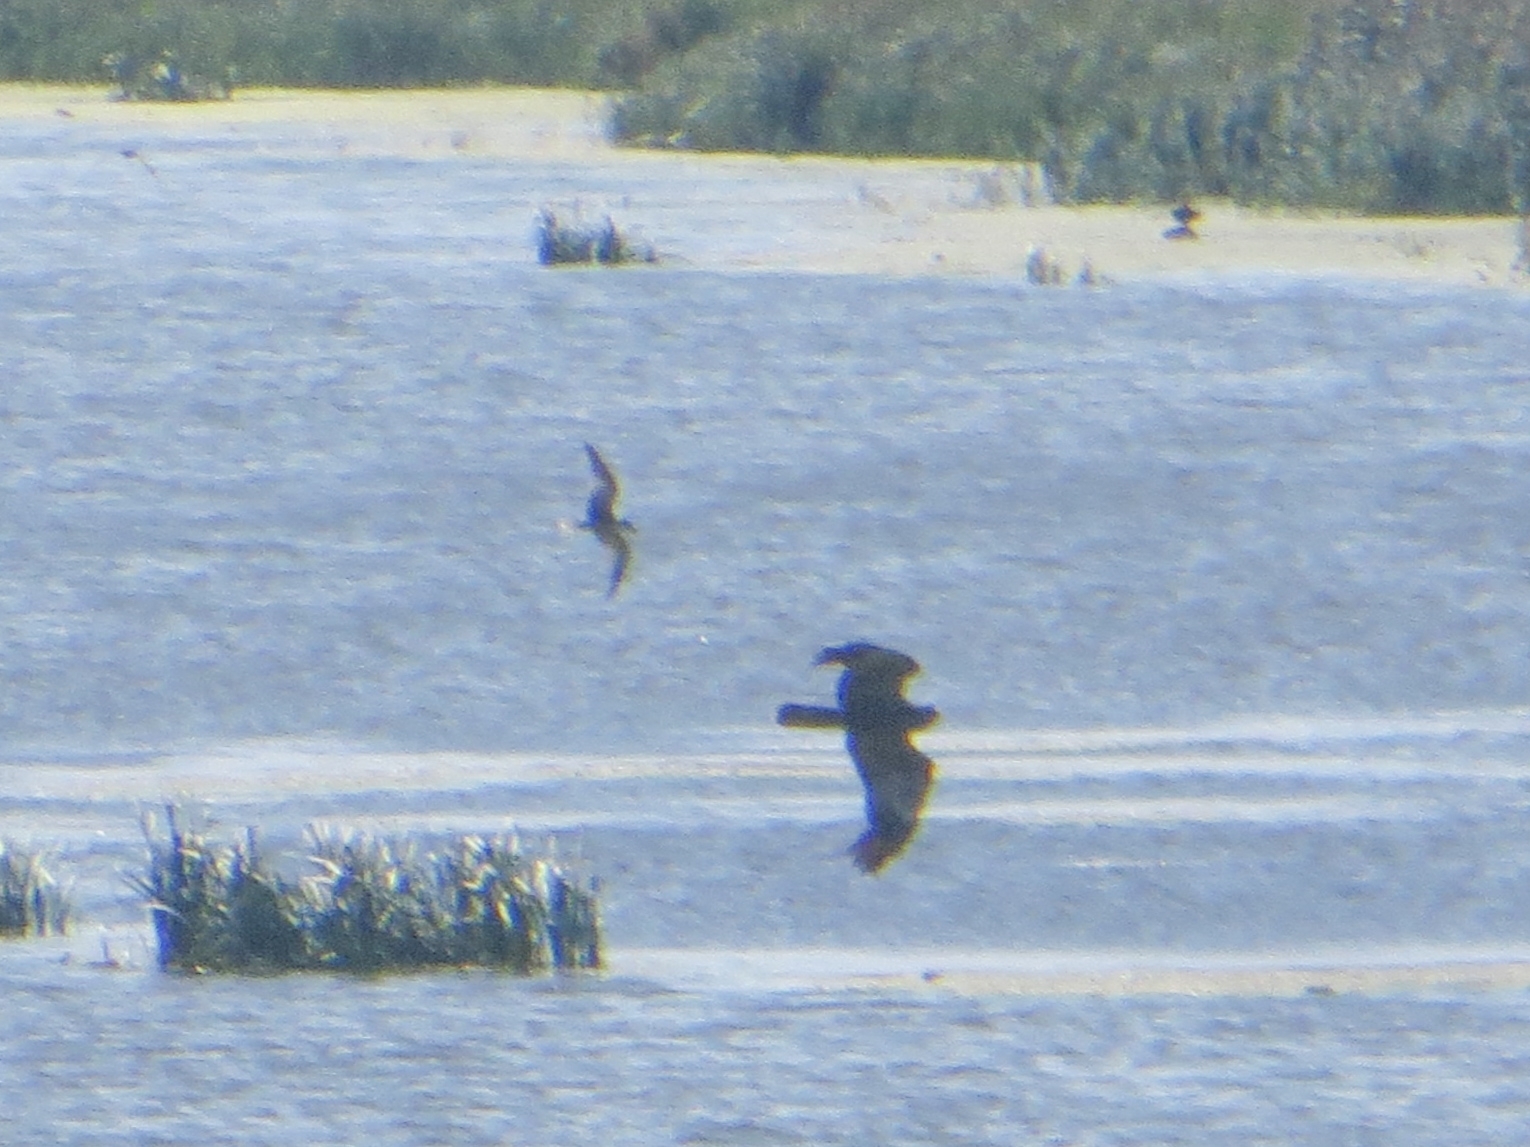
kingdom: Animalia
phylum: Chordata
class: Aves
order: Accipitriformes
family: Accipitridae
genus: Circus
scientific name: Circus aeruginosus
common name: Western marsh harrier
